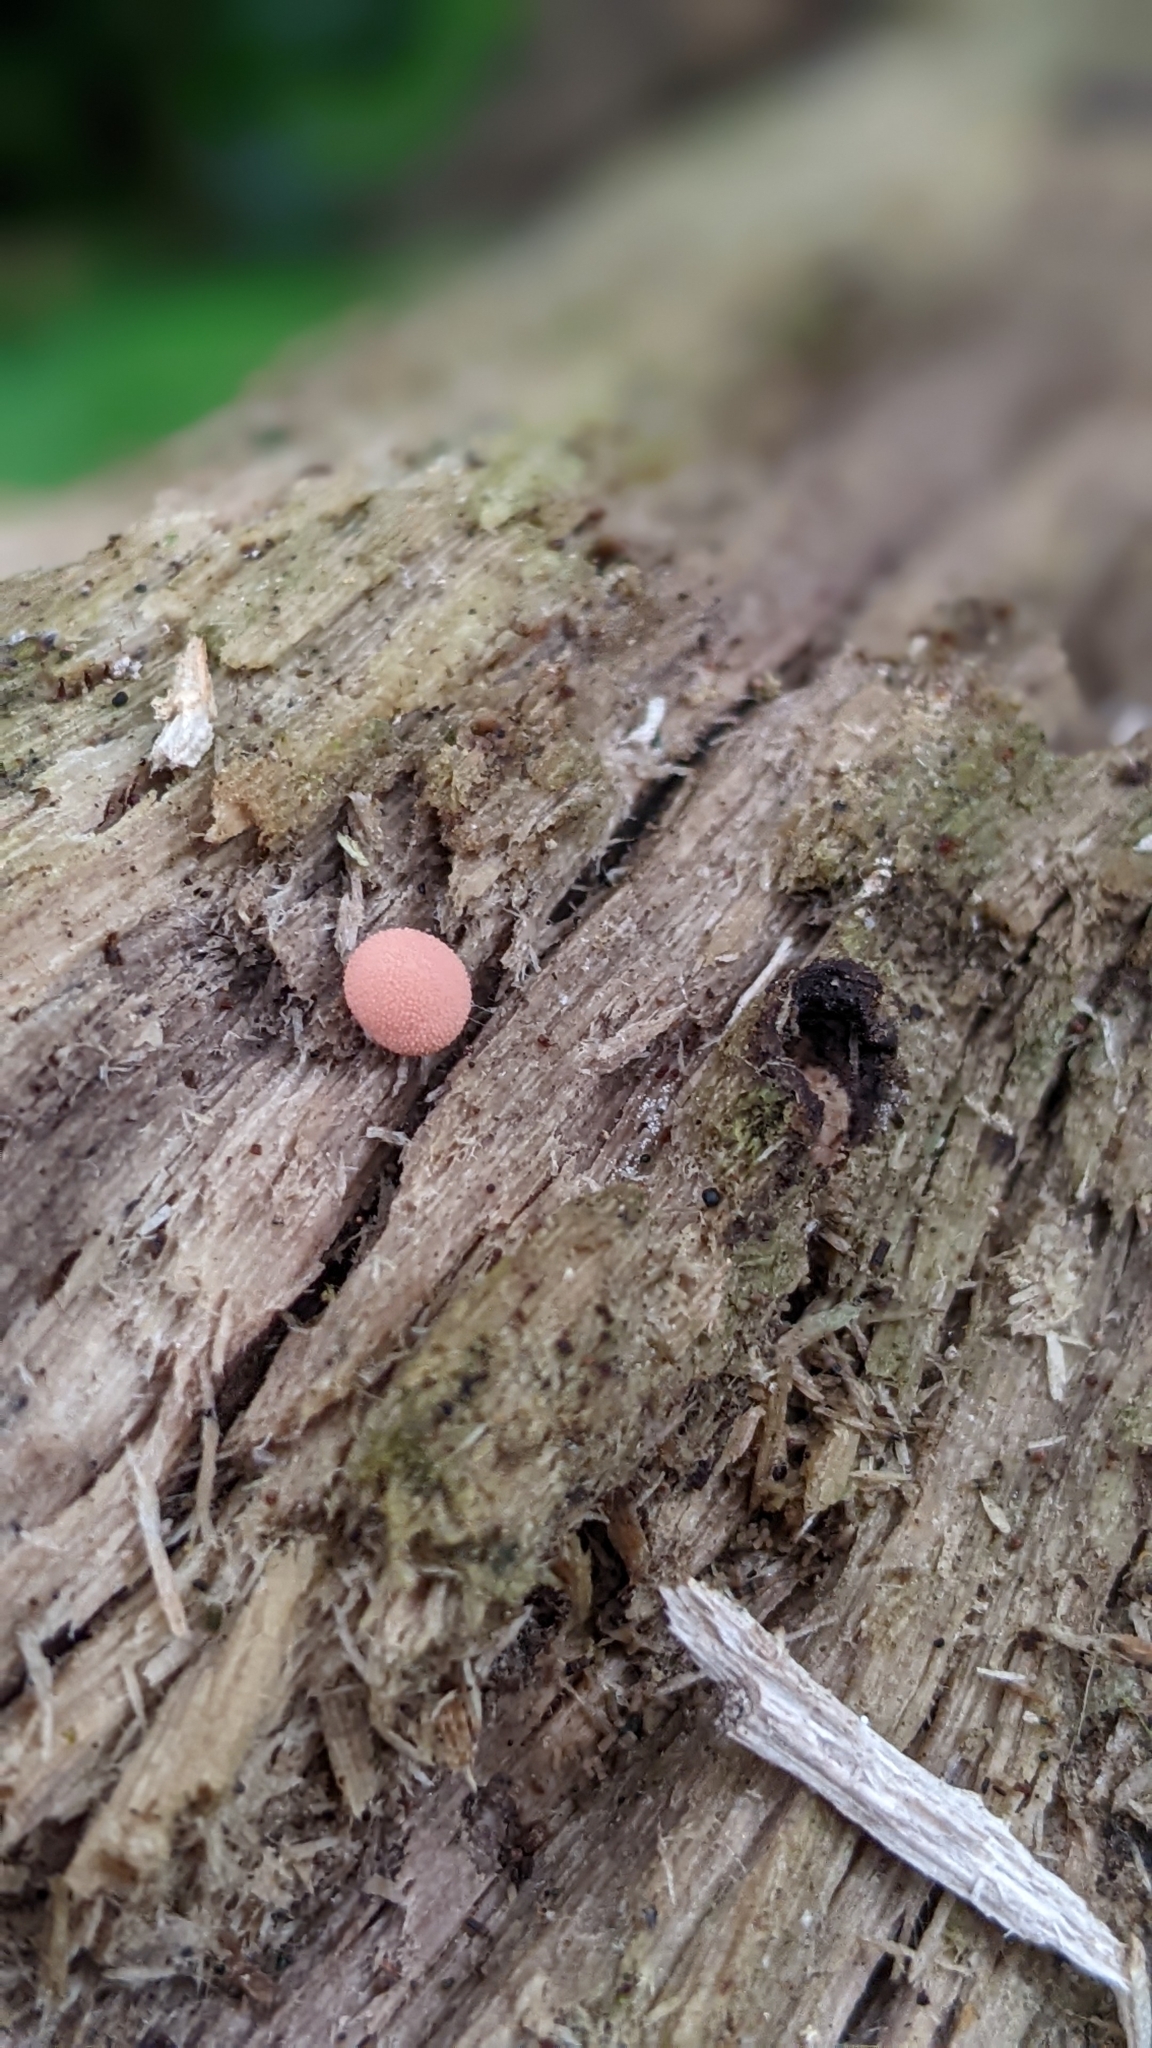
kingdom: Protozoa
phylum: Mycetozoa
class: Myxomycetes
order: Cribrariales
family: Tubiferaceae
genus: Lycogala
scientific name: Lycogala epidendrum
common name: Wolf's milk
